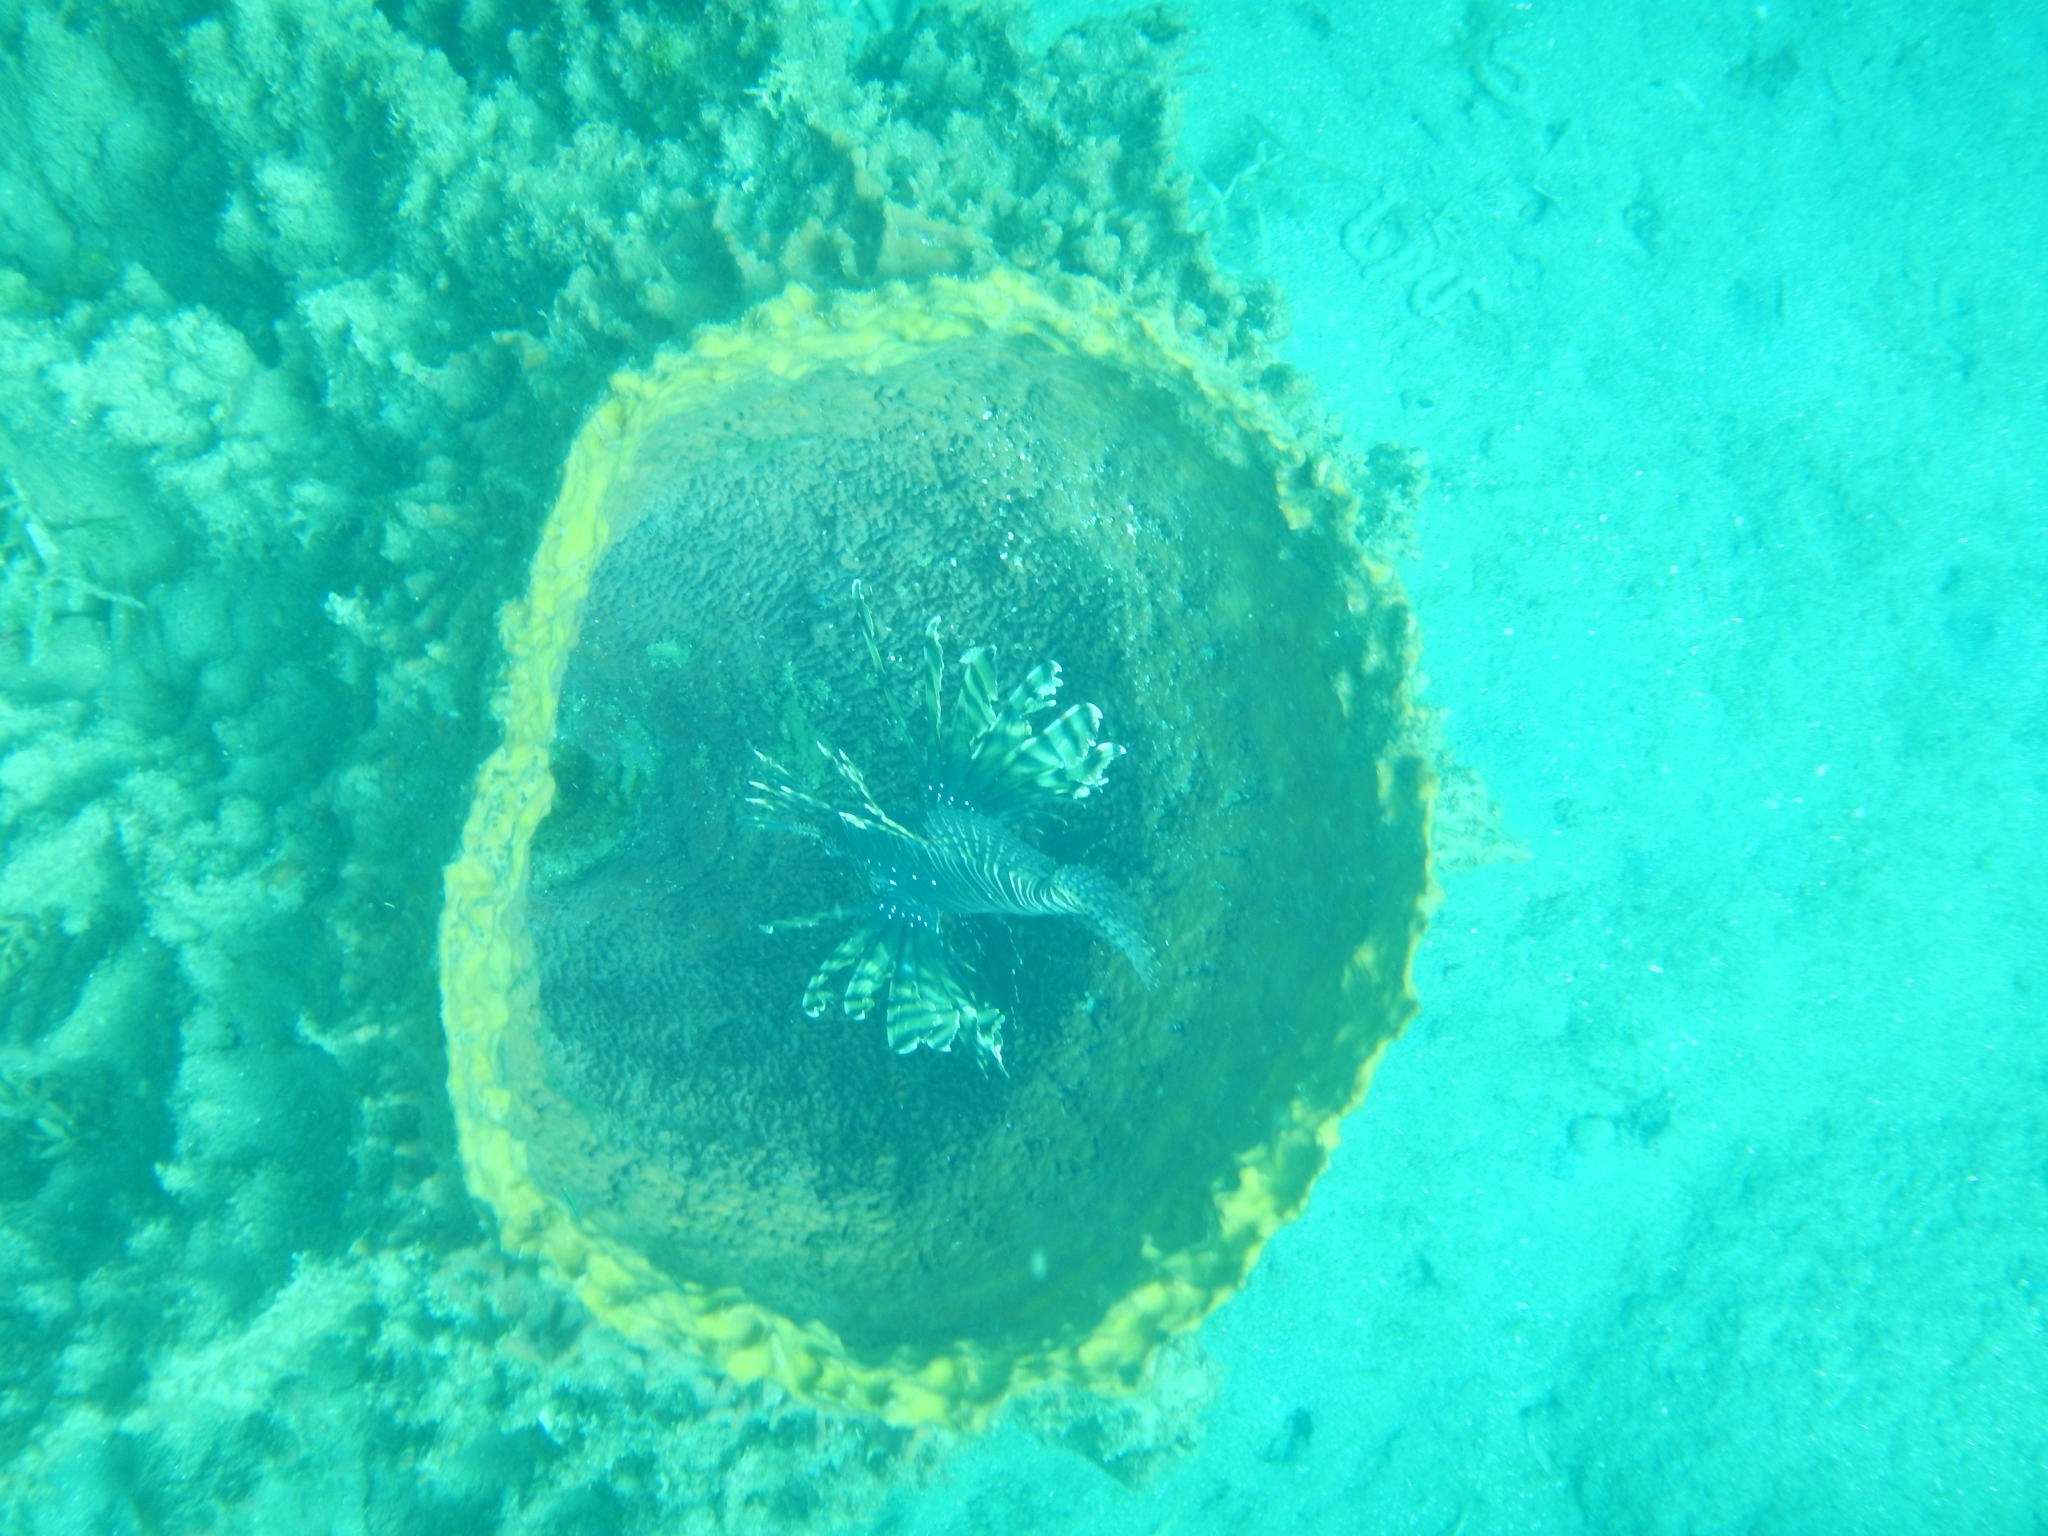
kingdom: Animalia
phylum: Chordata
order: Scorpaeniformes
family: Scorpaenidae
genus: Pterois
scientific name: Pterois volitans
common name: Lionfish
